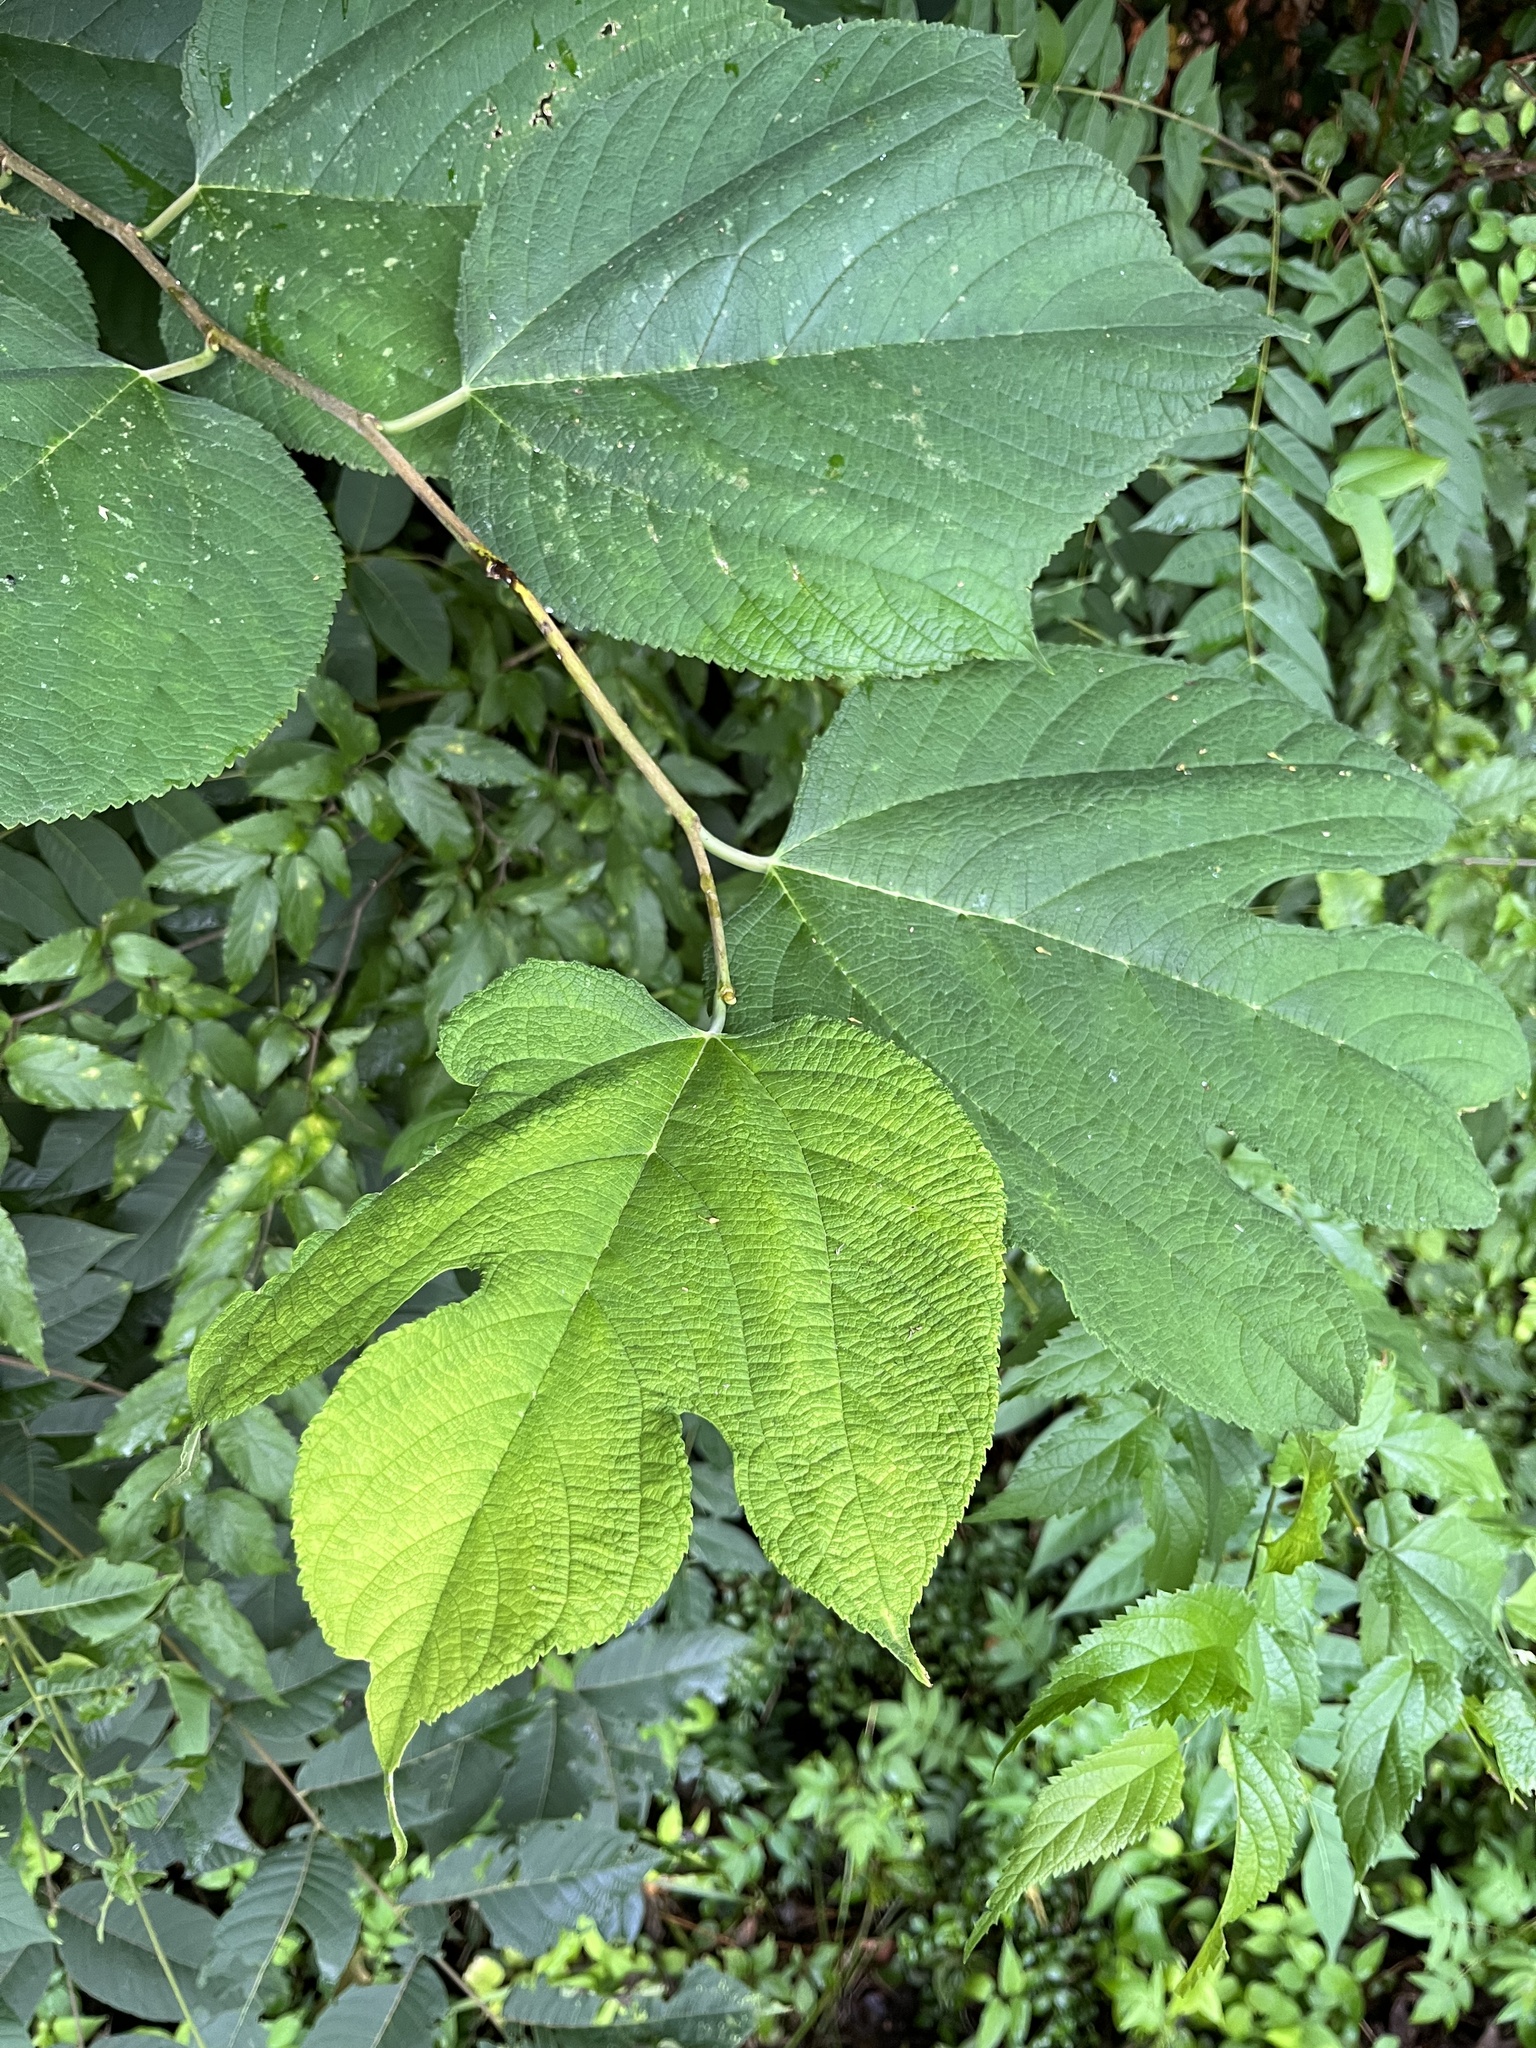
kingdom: Plantae
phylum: Tracheophyta
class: Magnoliopsida
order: Rosales
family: Moraceae
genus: Morus
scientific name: Morus rubra
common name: Red mulberry
